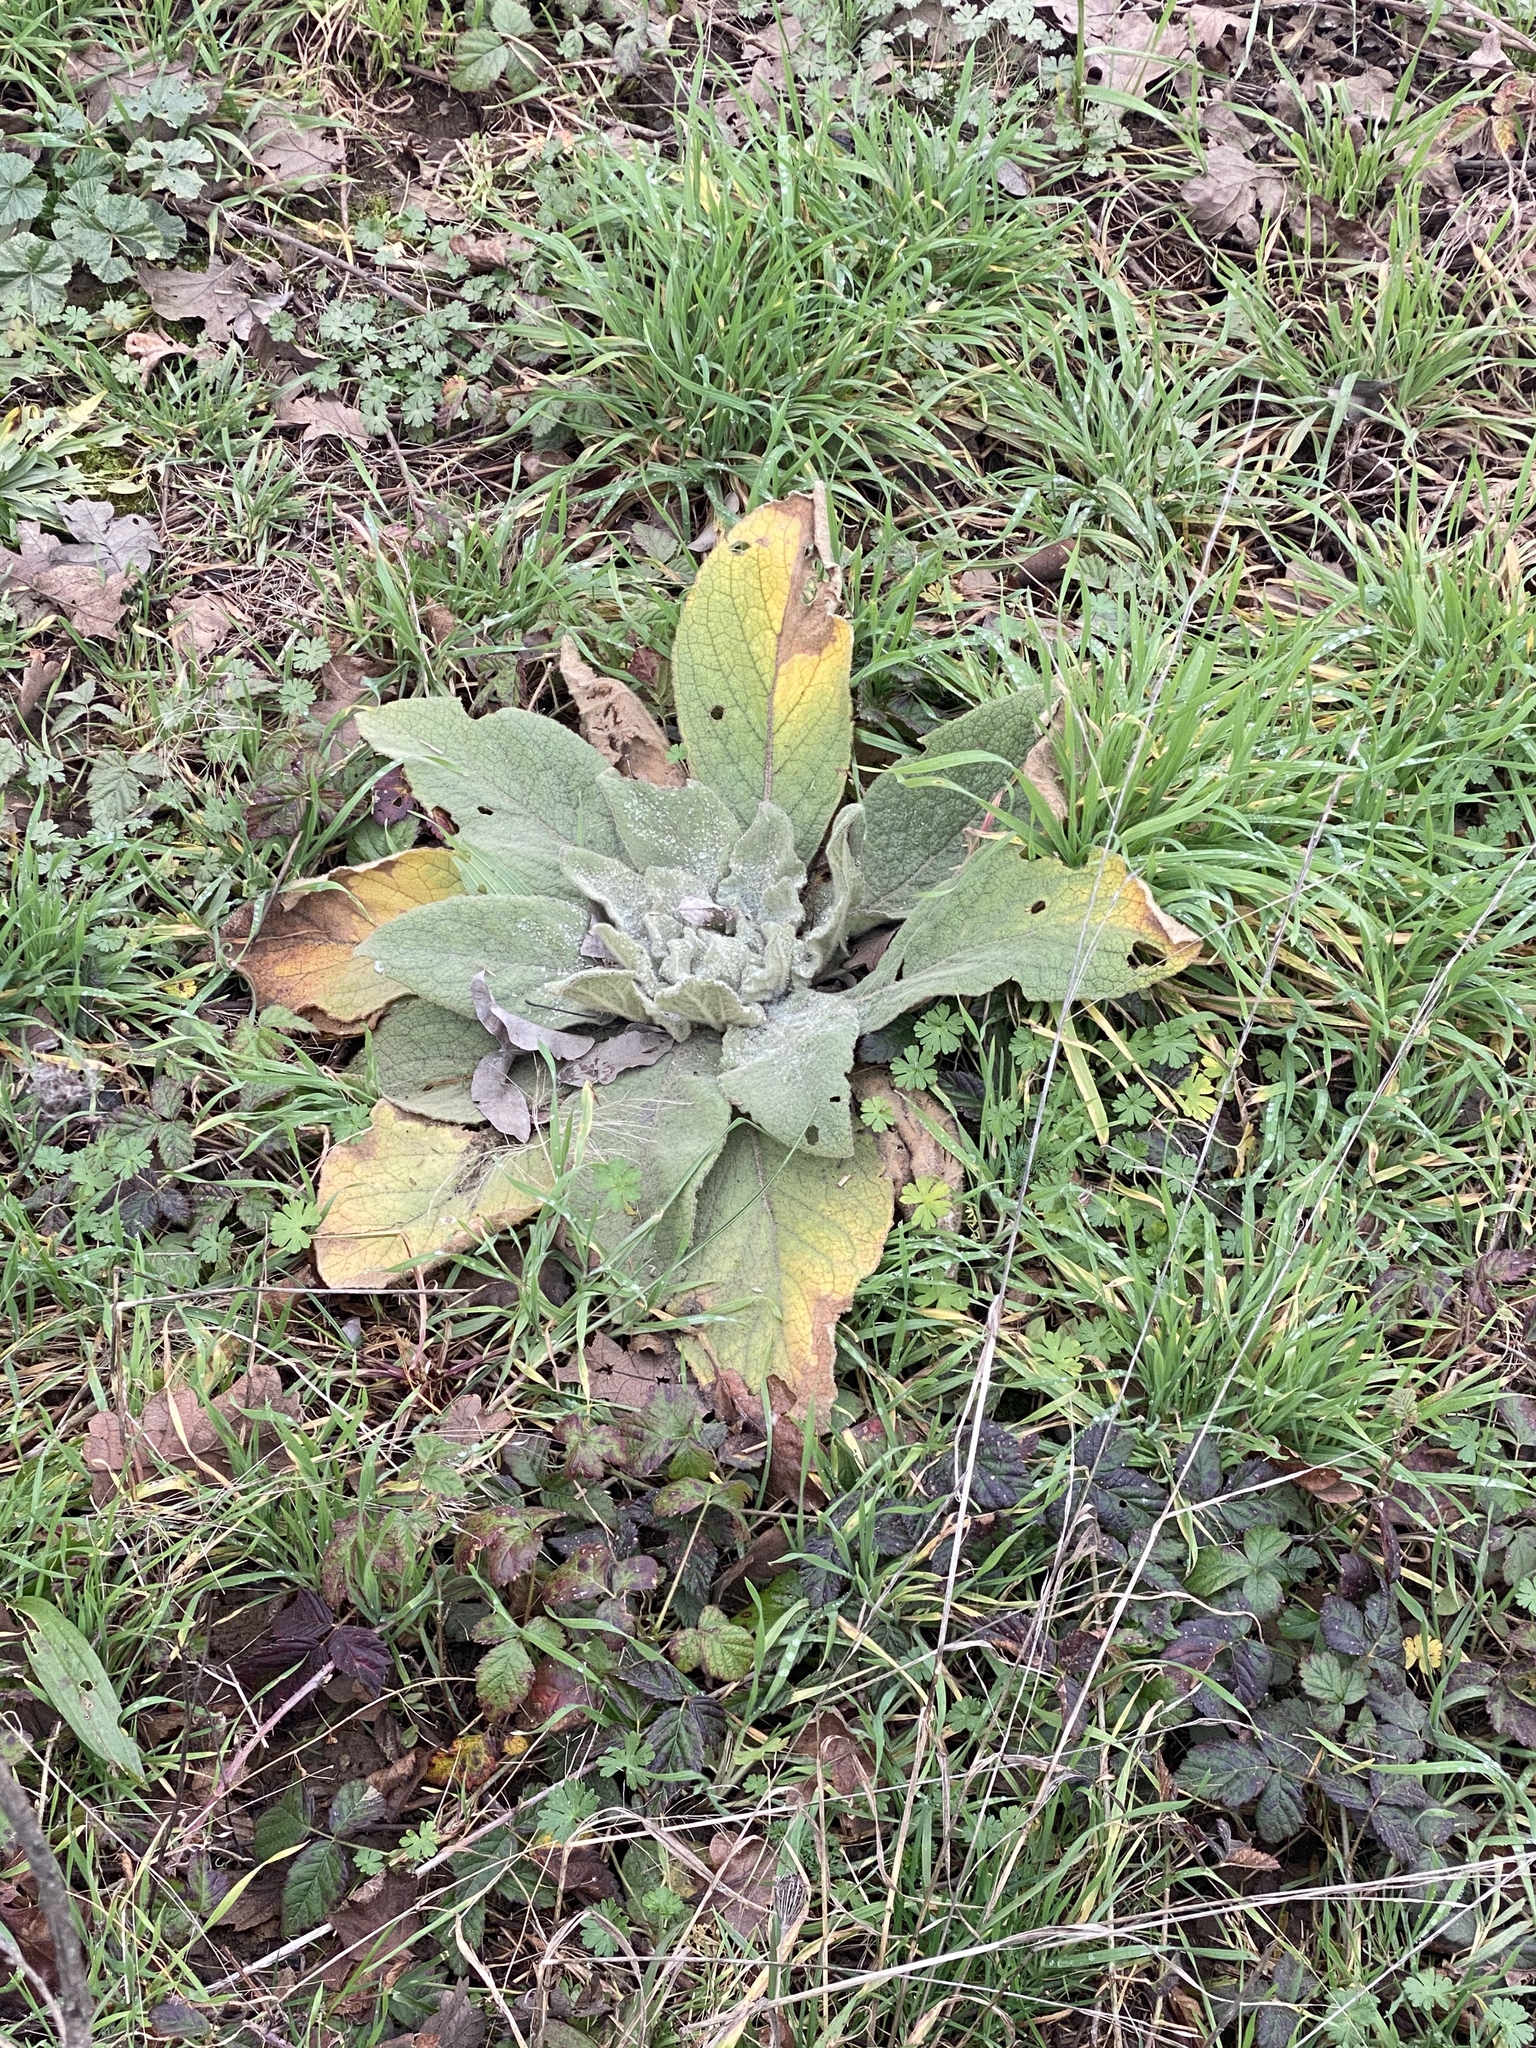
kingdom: Plantae
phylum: Tracheophyta
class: Magnoliopsida
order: Lamiales
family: Scrophulariaceae
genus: Verbascum
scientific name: Verbascum thapsus
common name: Common mullein
